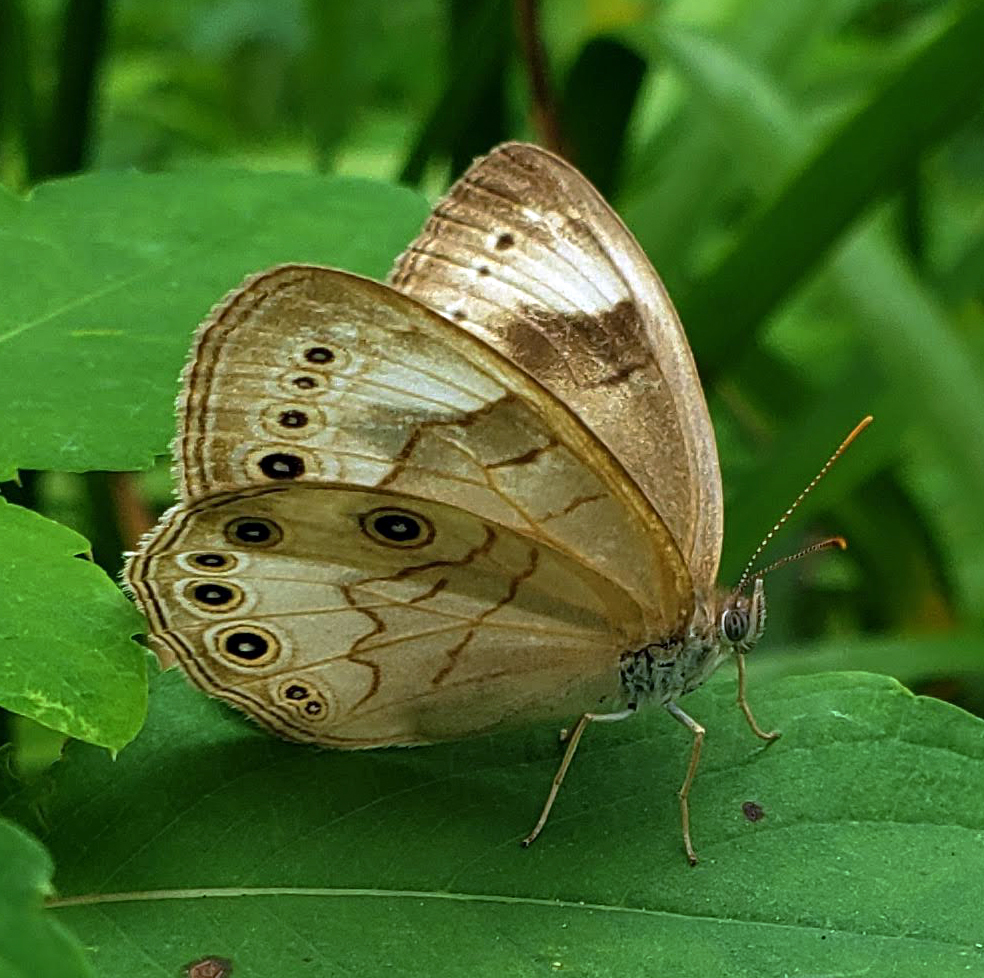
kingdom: Animalia
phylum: Arthropoda
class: Insecta
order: Lepidoptera
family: Nymphalidae
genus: Lethe
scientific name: Lethe eurydice
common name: Eyed brown
